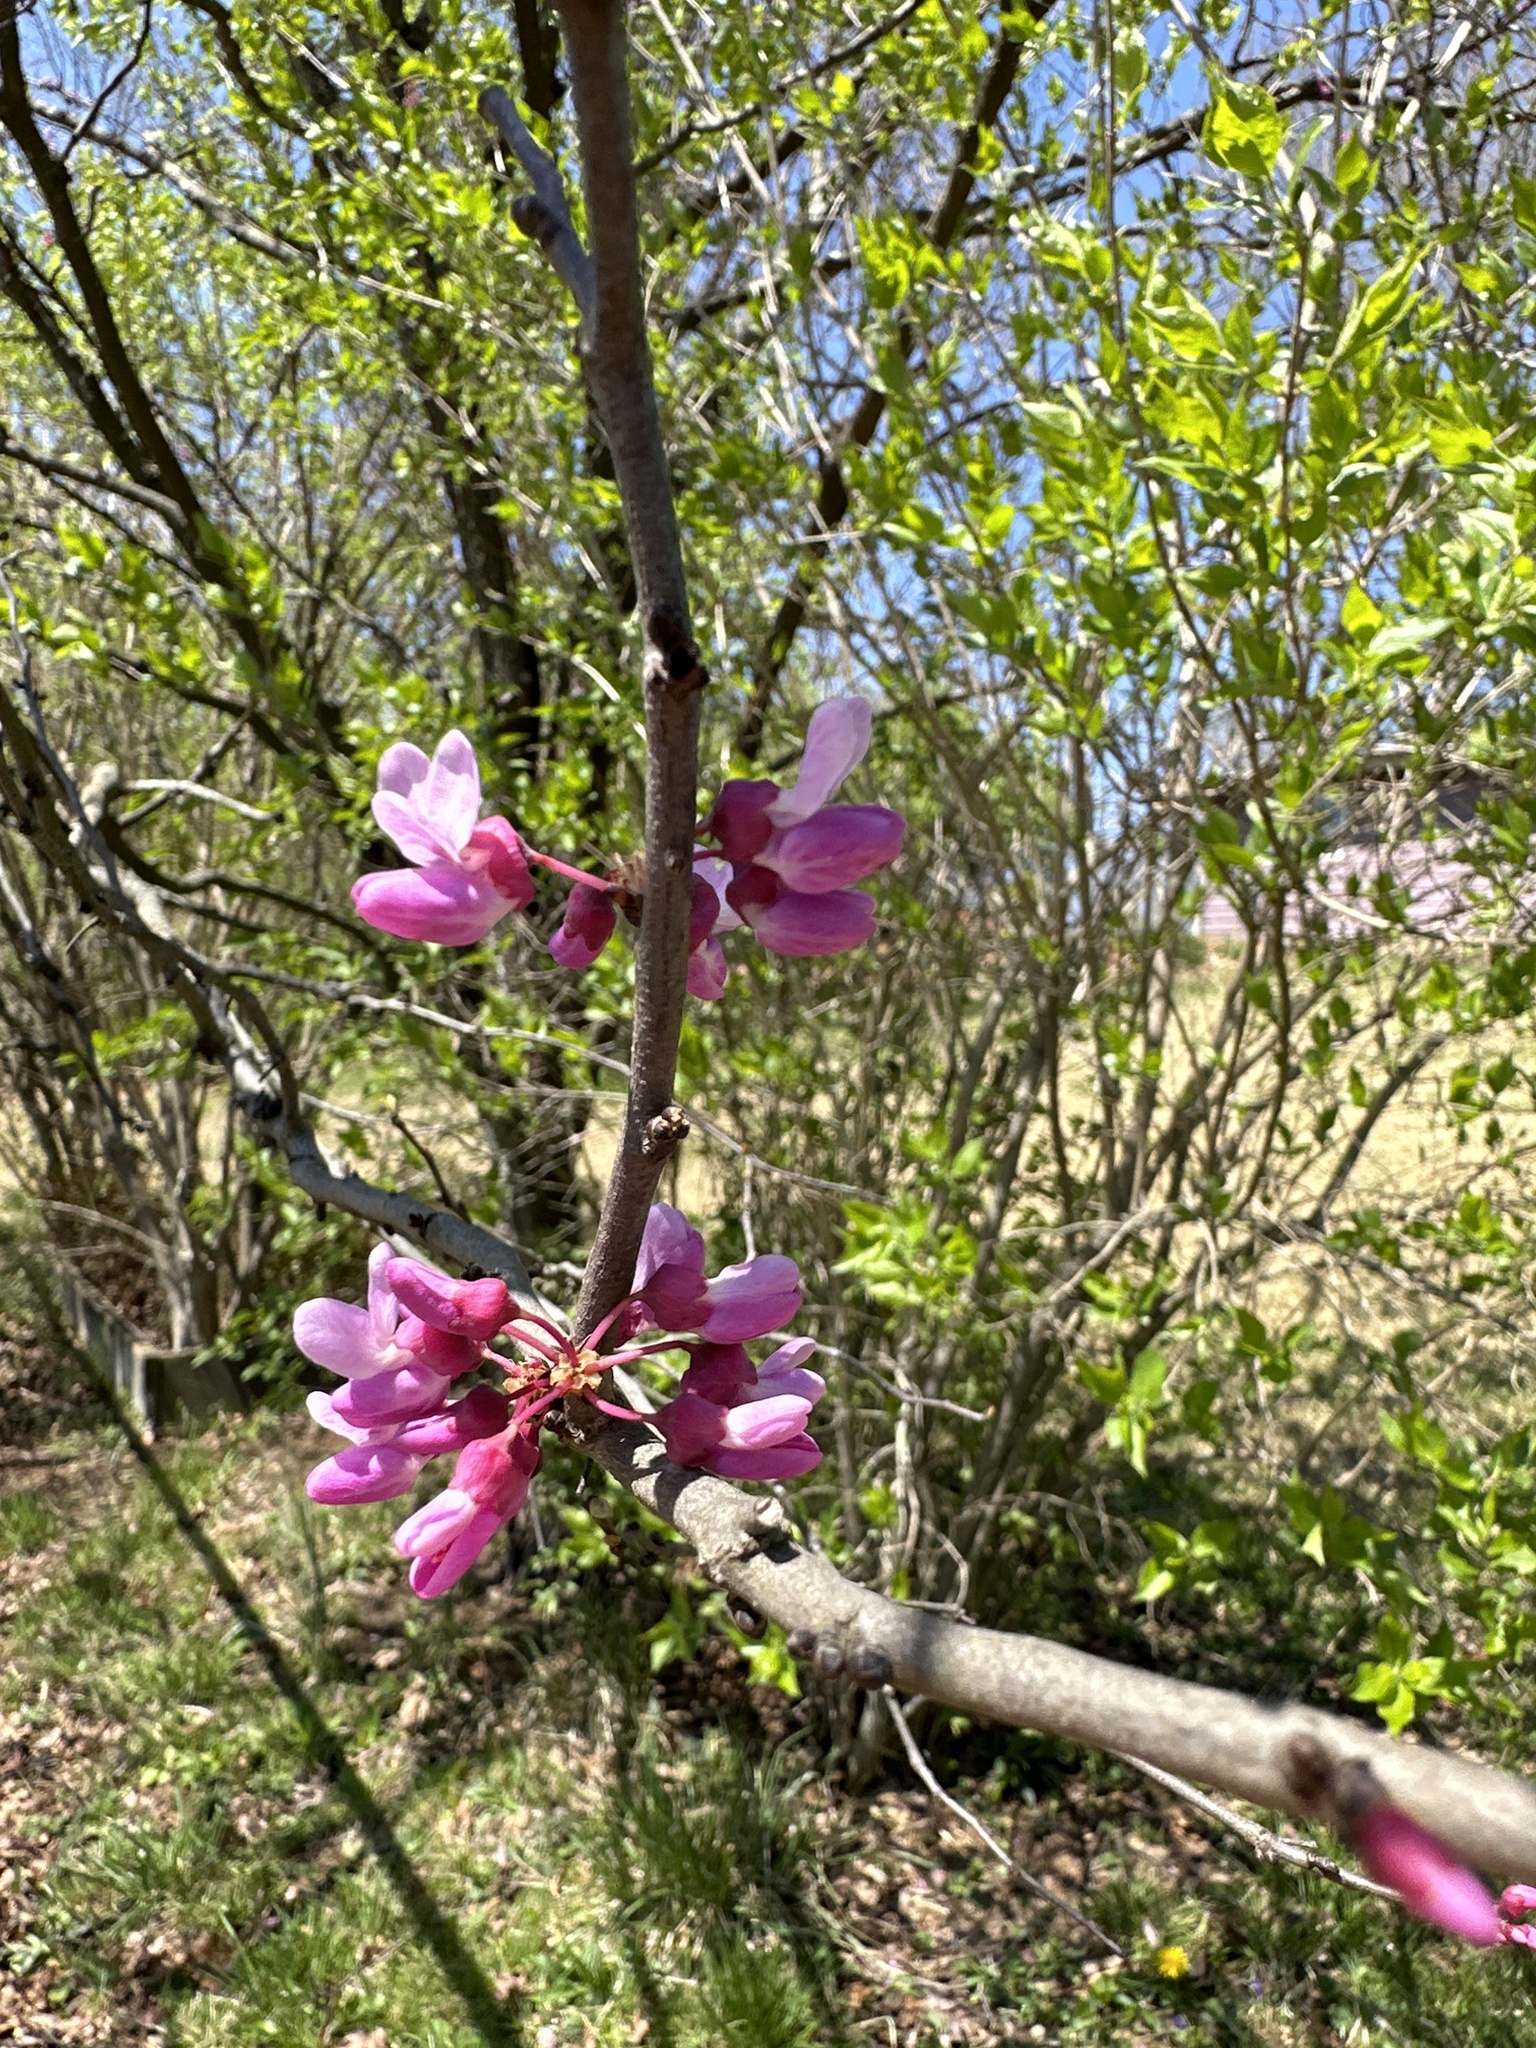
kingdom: Plantae
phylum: Tracheophyta
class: Magnoliopsida
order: Fabales
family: Fabaceae
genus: Cercis
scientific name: Cercis canadensis
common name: Eastern redbud
